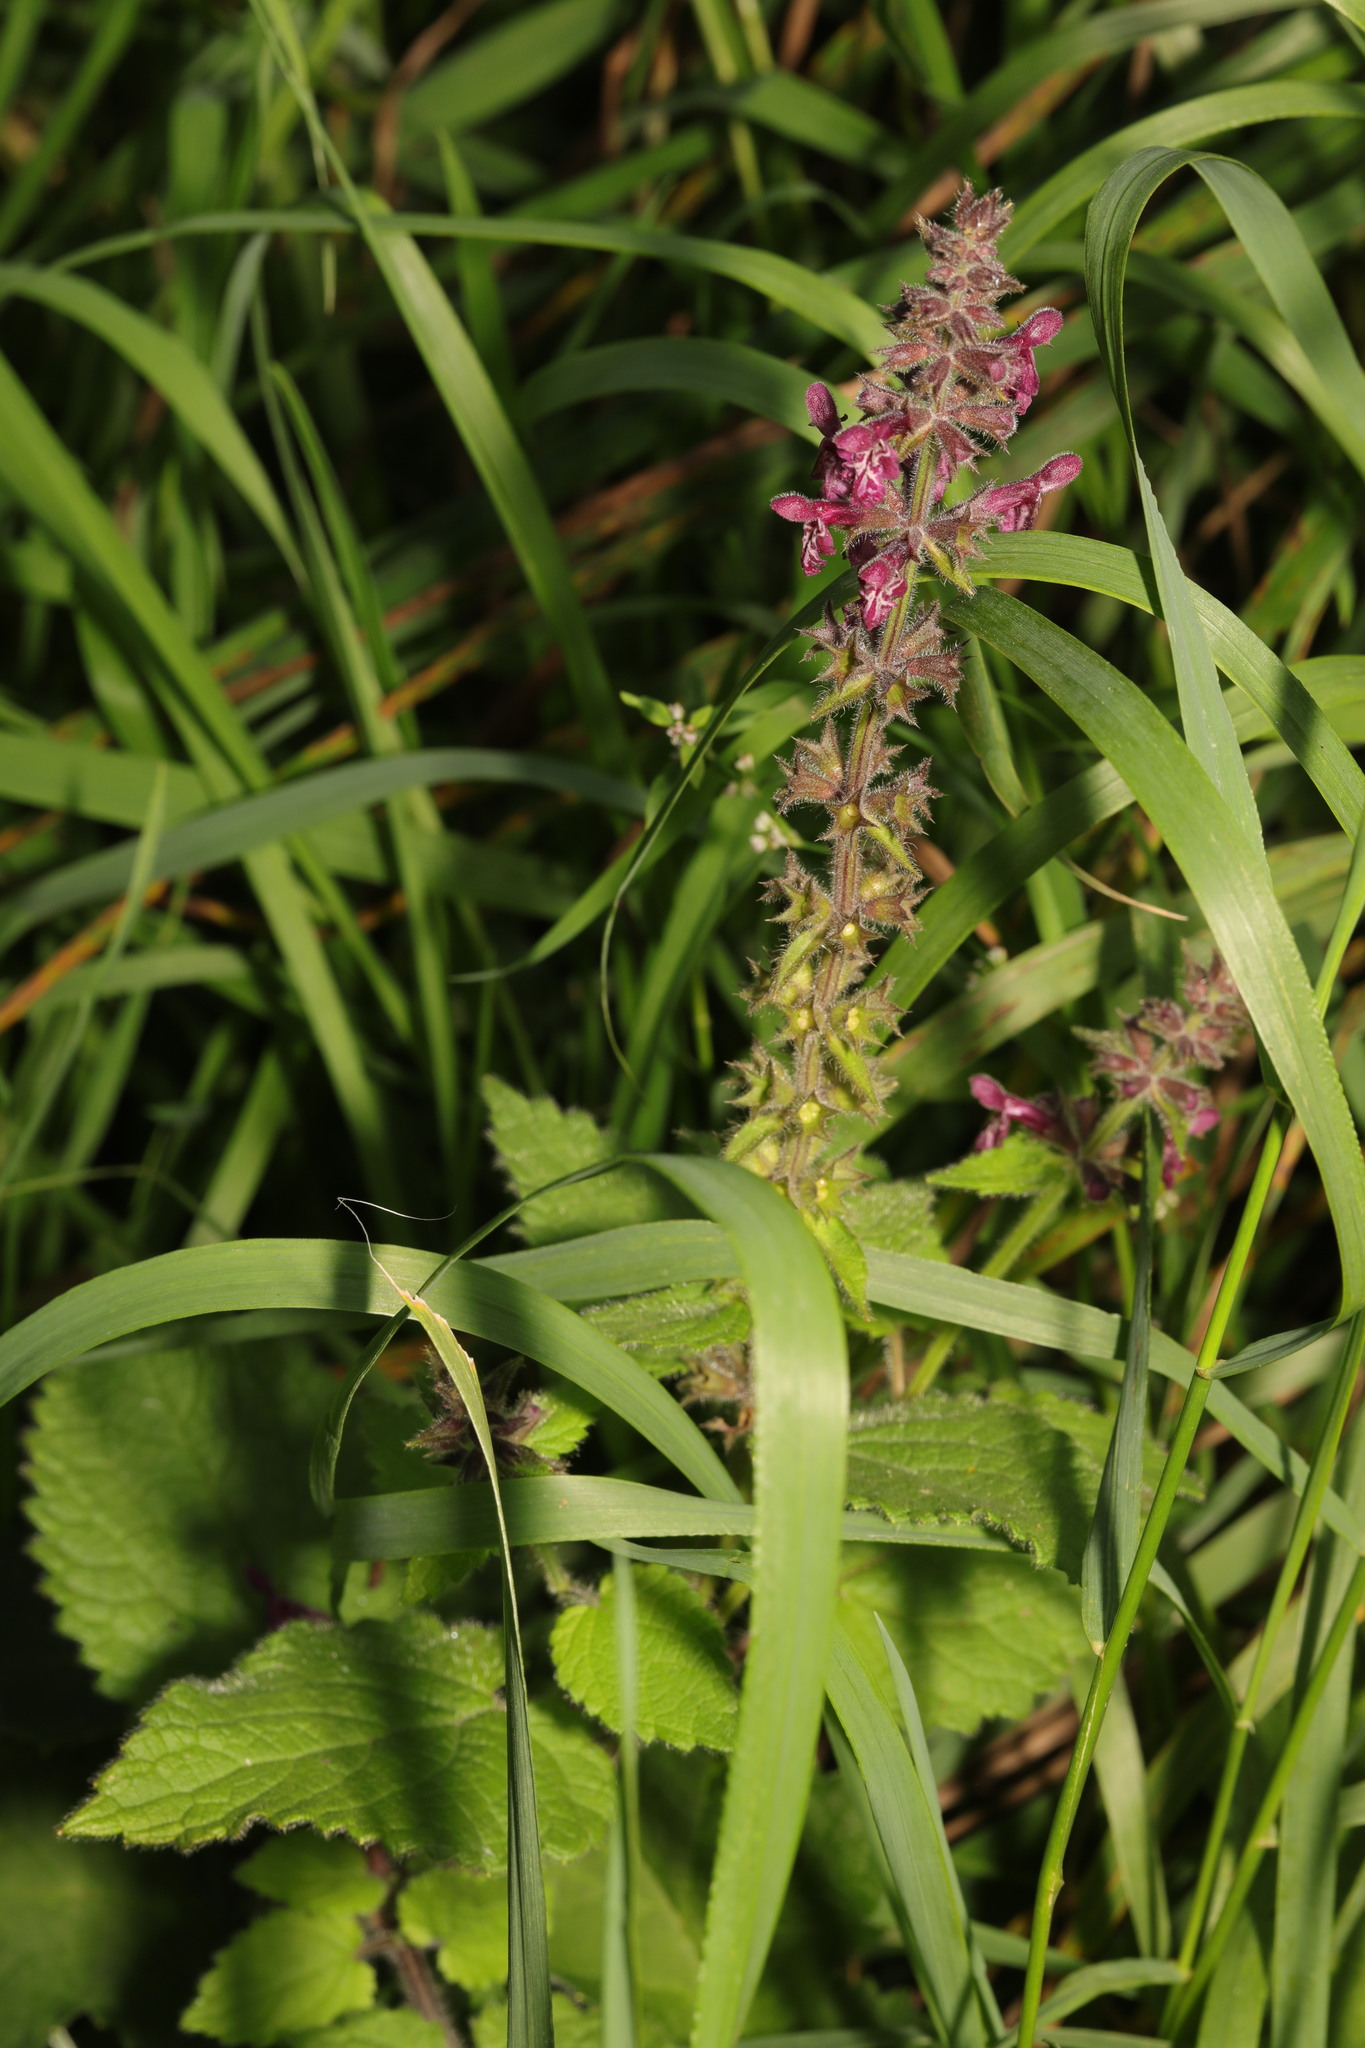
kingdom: Plantae
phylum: Tracheophyta
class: Magnoliopsida
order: Lamiales
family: Lamiaceae
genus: Stachys
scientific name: Stachys sylvatica
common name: Hedge woundwort
